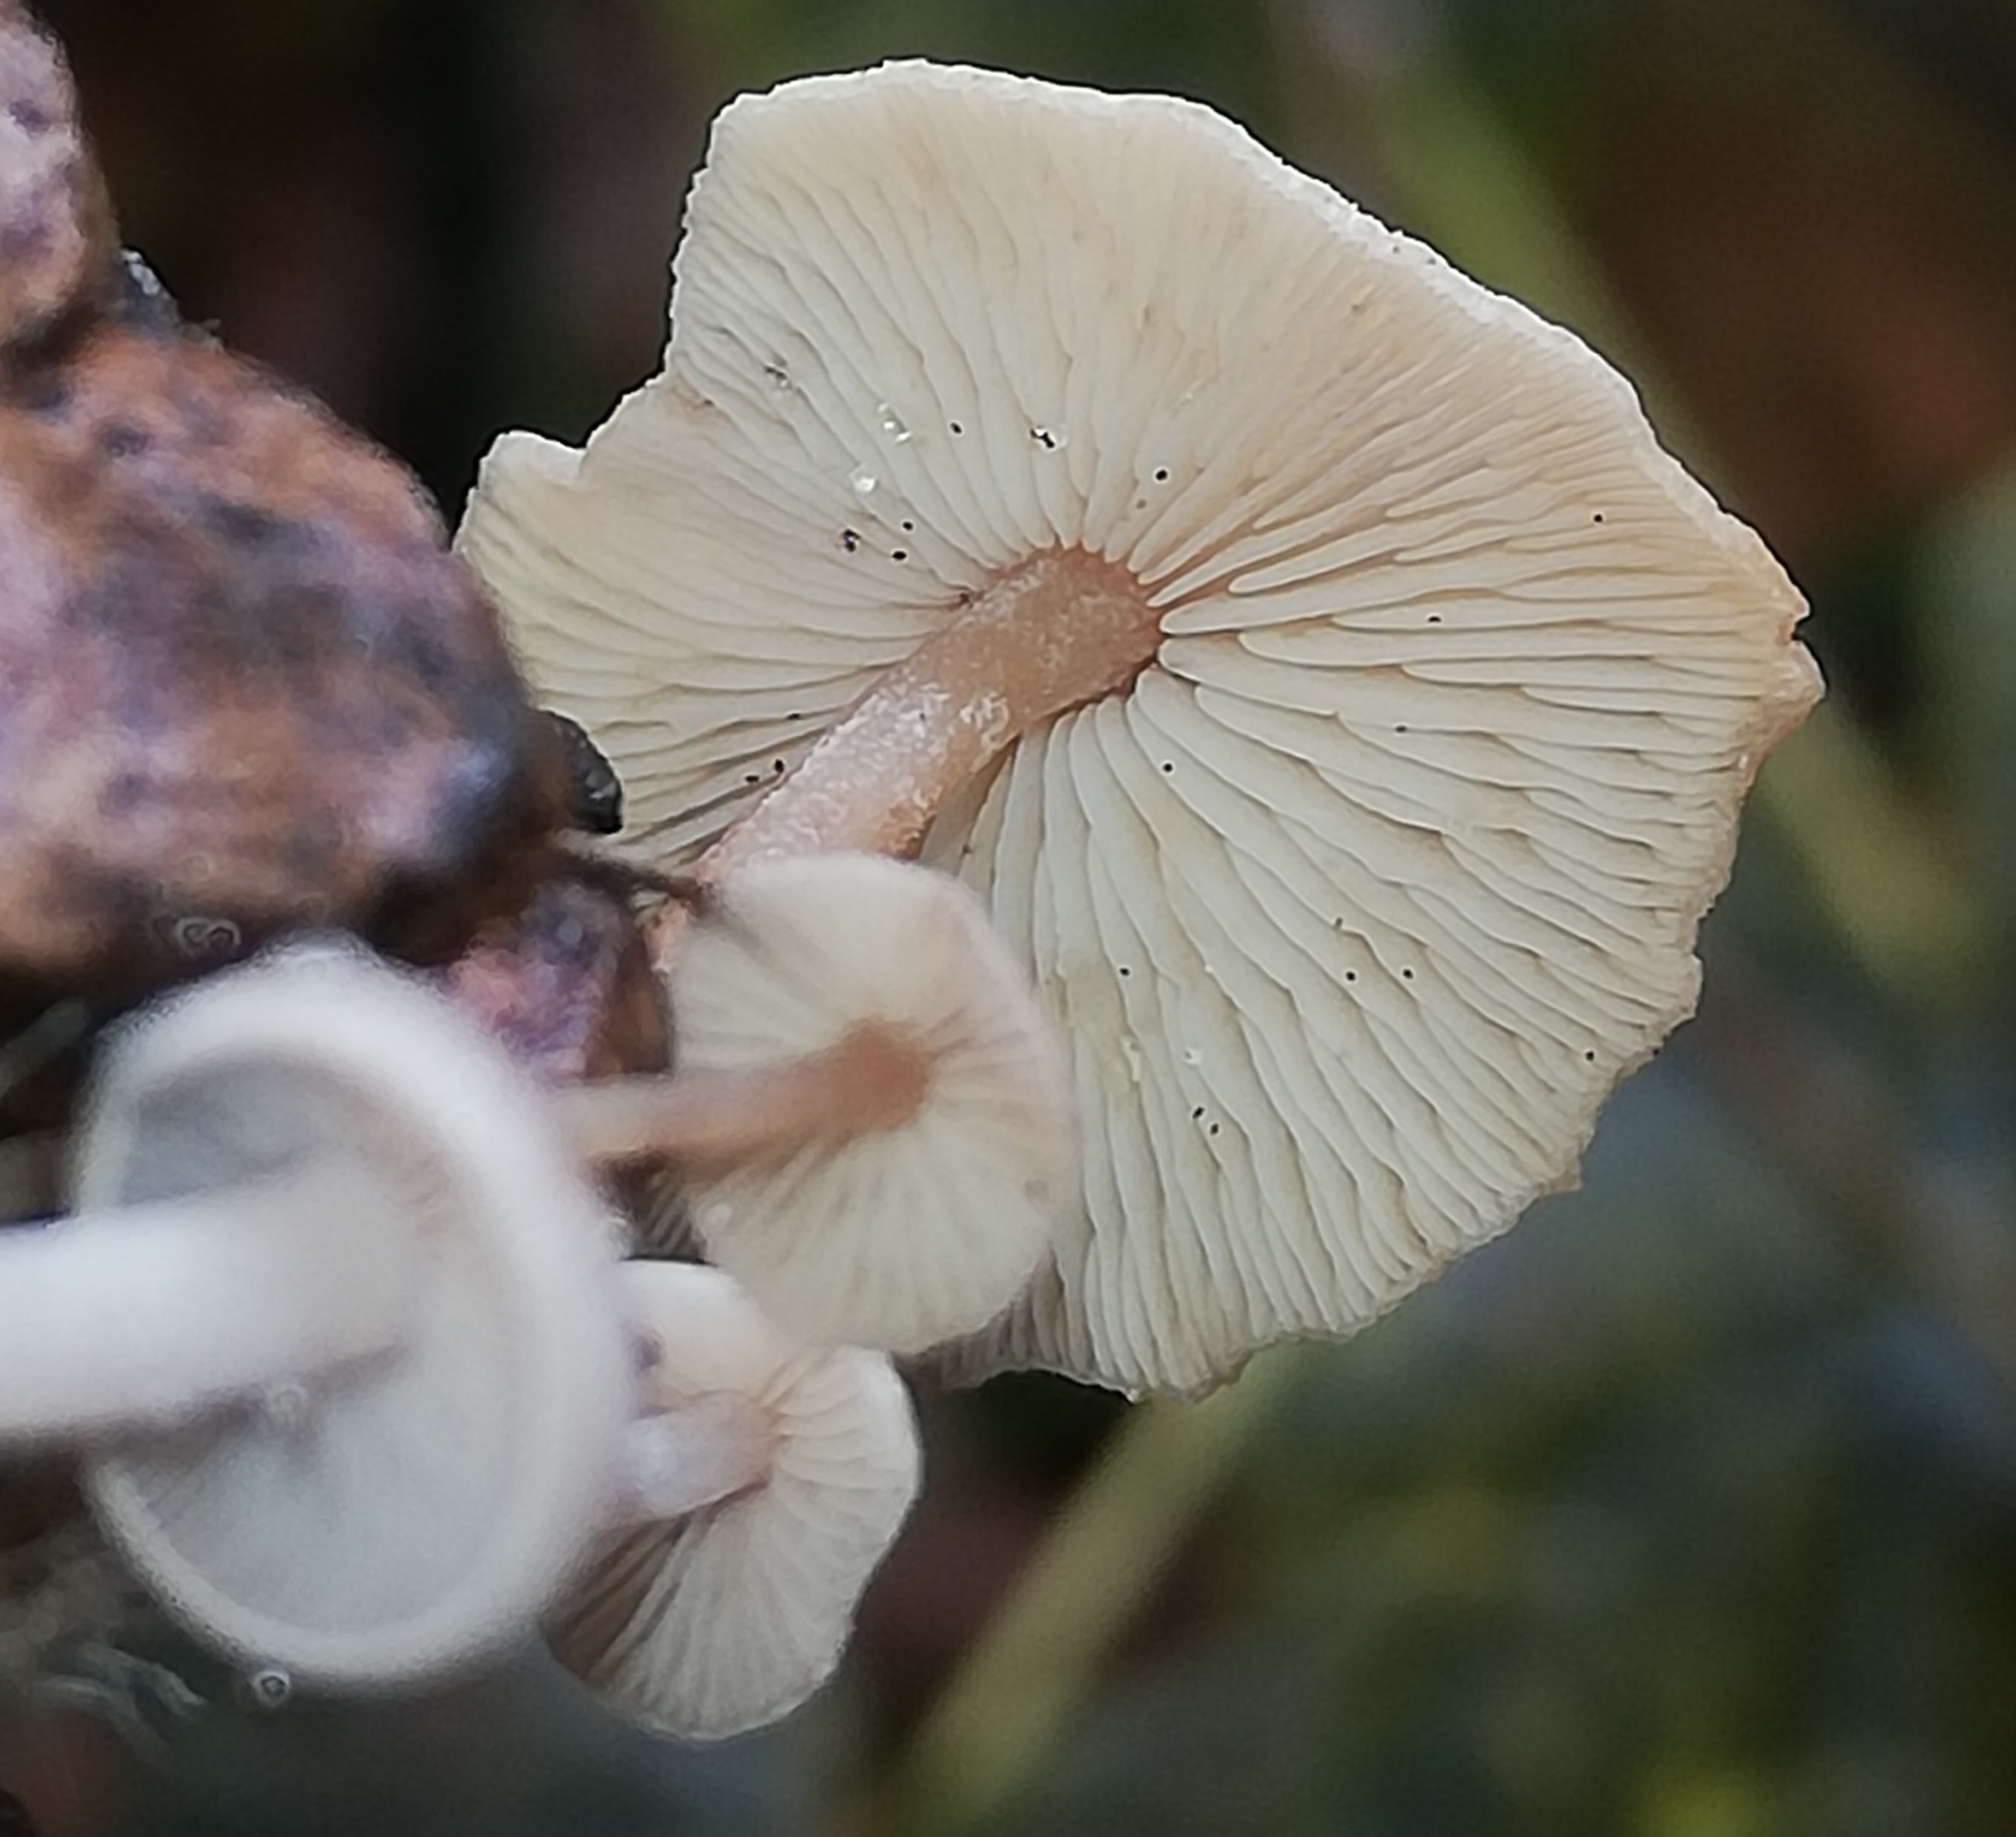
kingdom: Fungi
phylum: Basidiomycota
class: Agaricomycetes
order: Agaricales
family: Marasmiaceae
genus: Baeospora
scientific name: Baeospora myosura
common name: Conifercone cap
